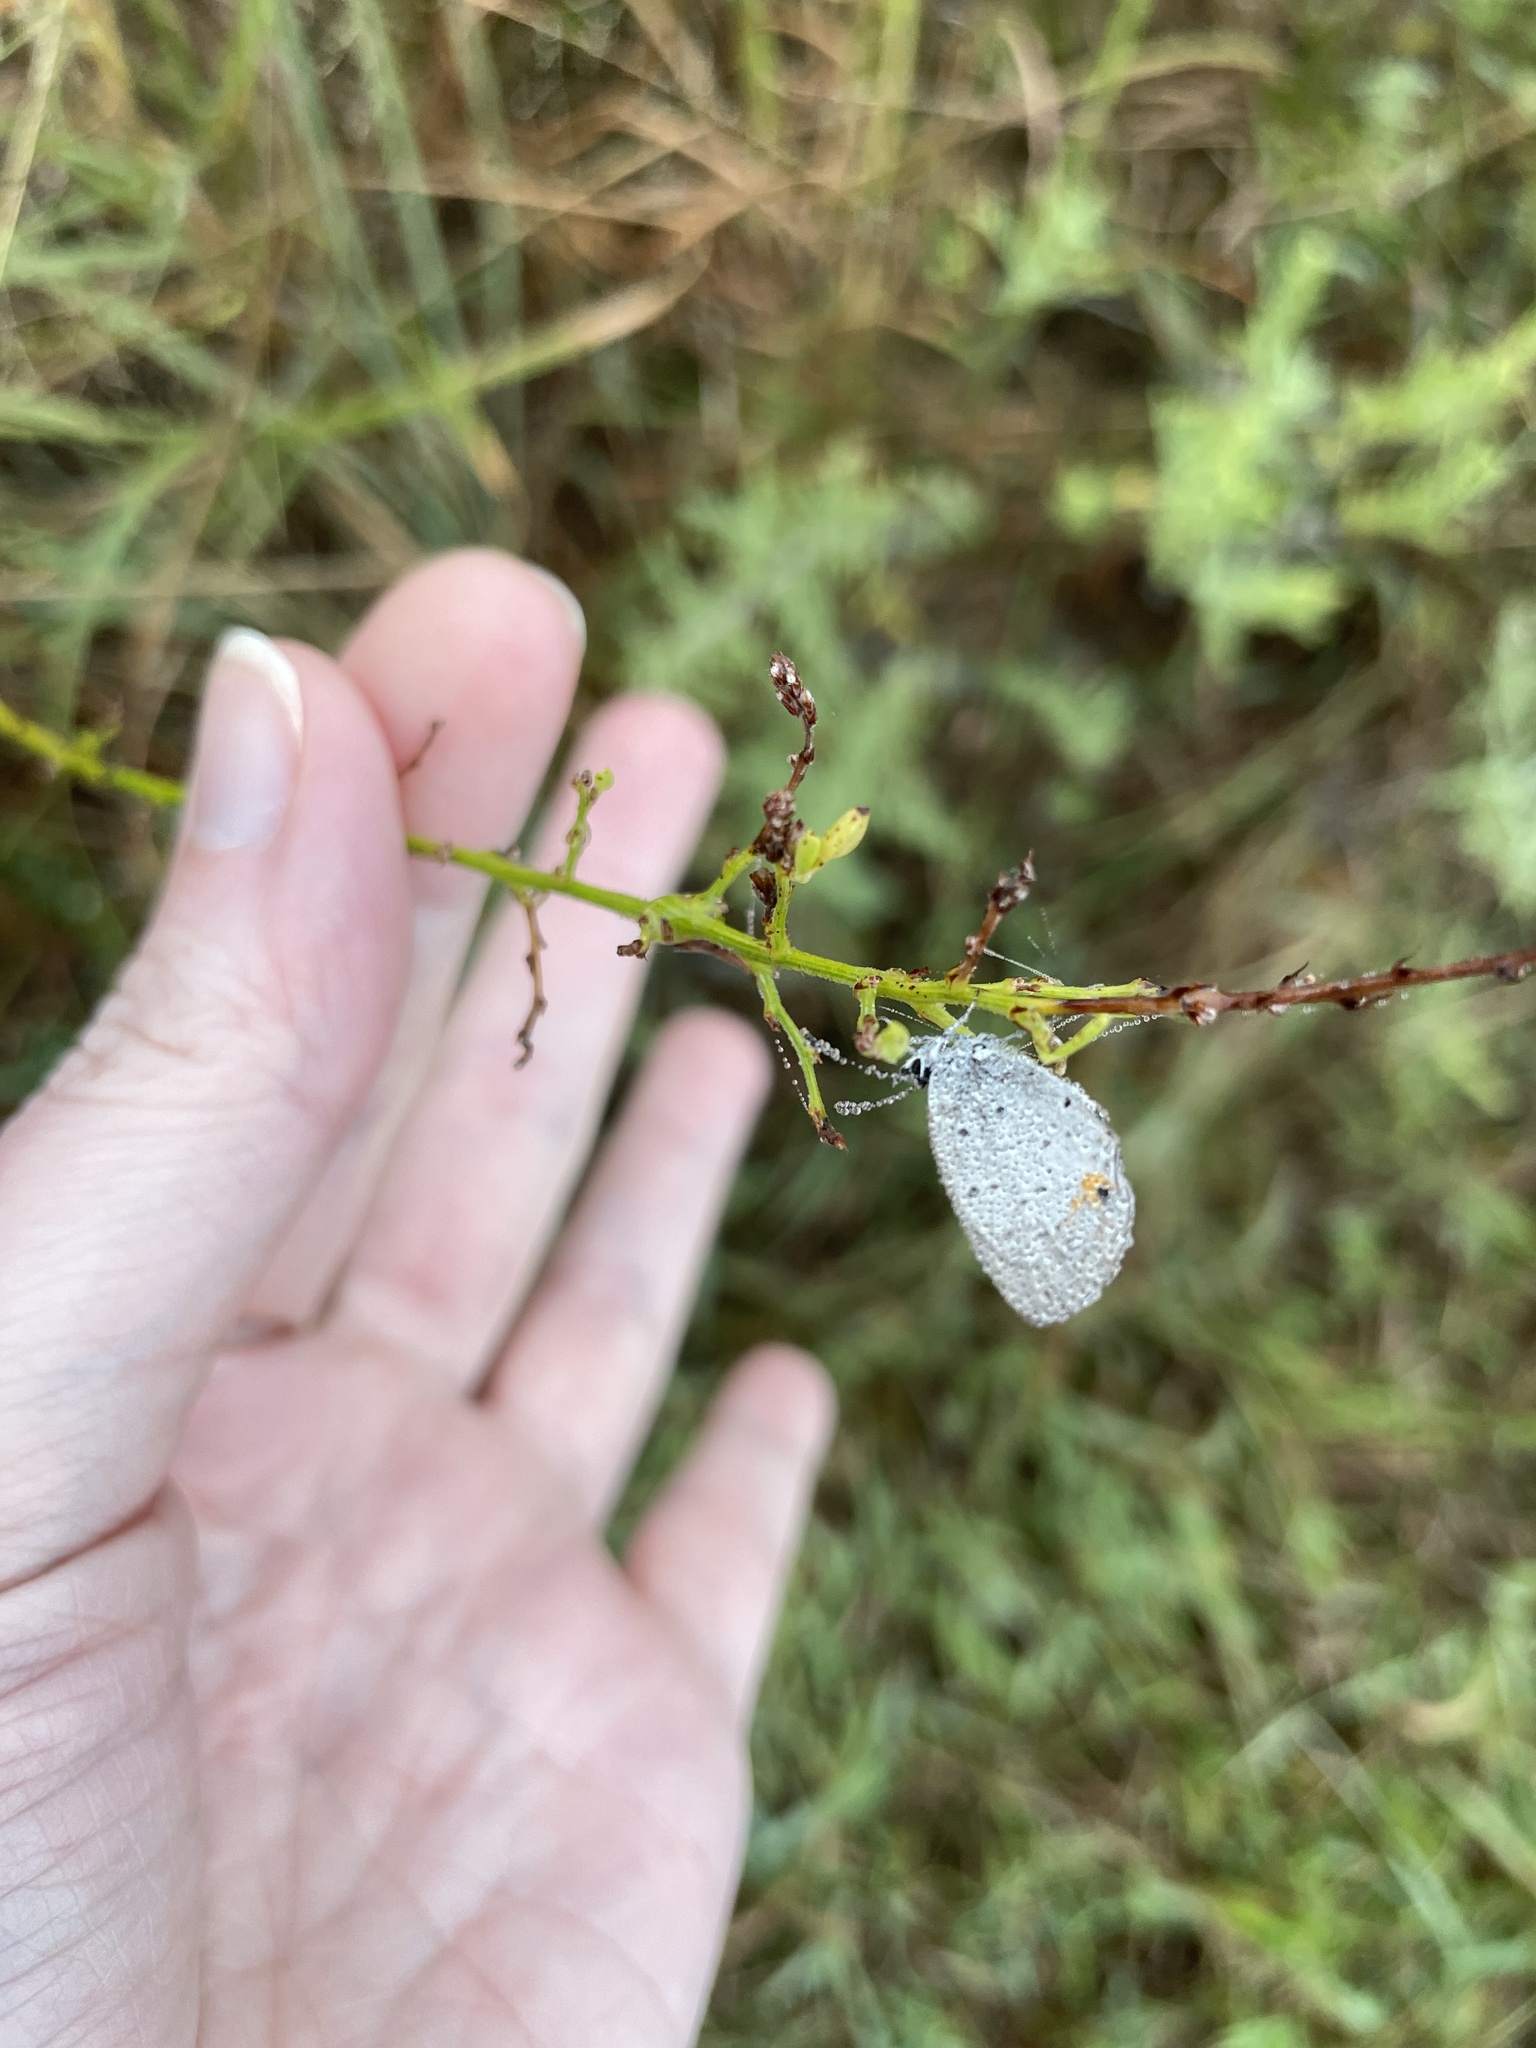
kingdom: Animalia
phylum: Arthropoda
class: Insecta
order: Lepidoptera
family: Lycaenidae
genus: Elkalyce
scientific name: Elkalyce comyntas
